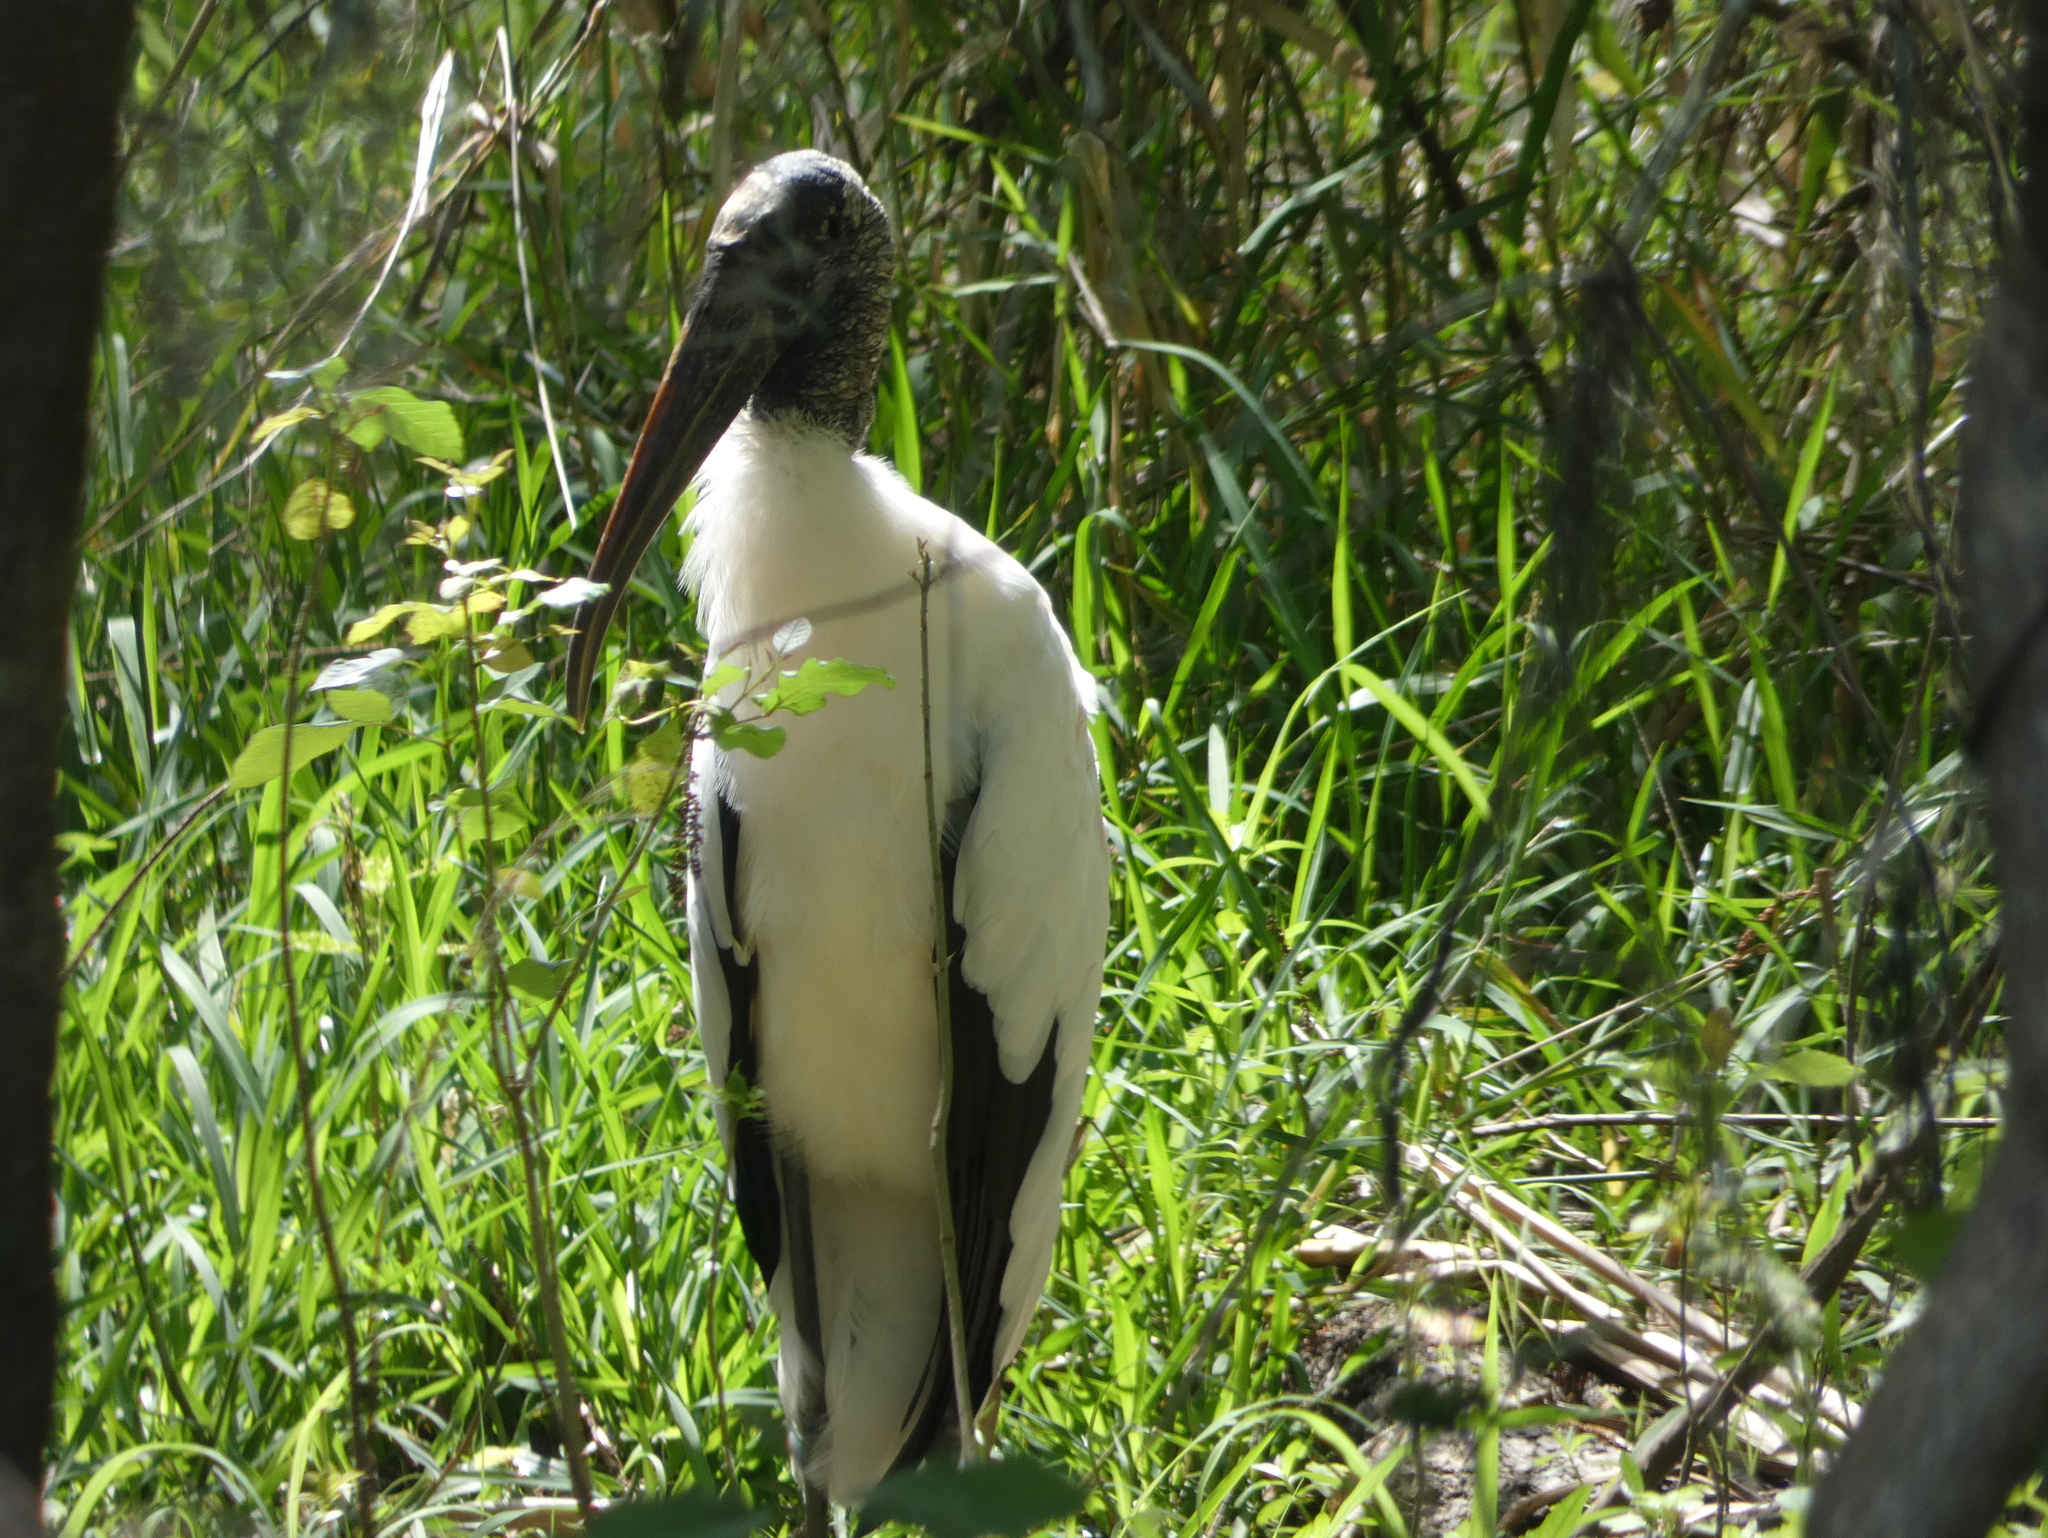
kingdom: Animalia
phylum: Chordata
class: Aves
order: Ciconiiformes
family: Ciconiidae
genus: Mycteria
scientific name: Mycteria americana
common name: Wood stork
